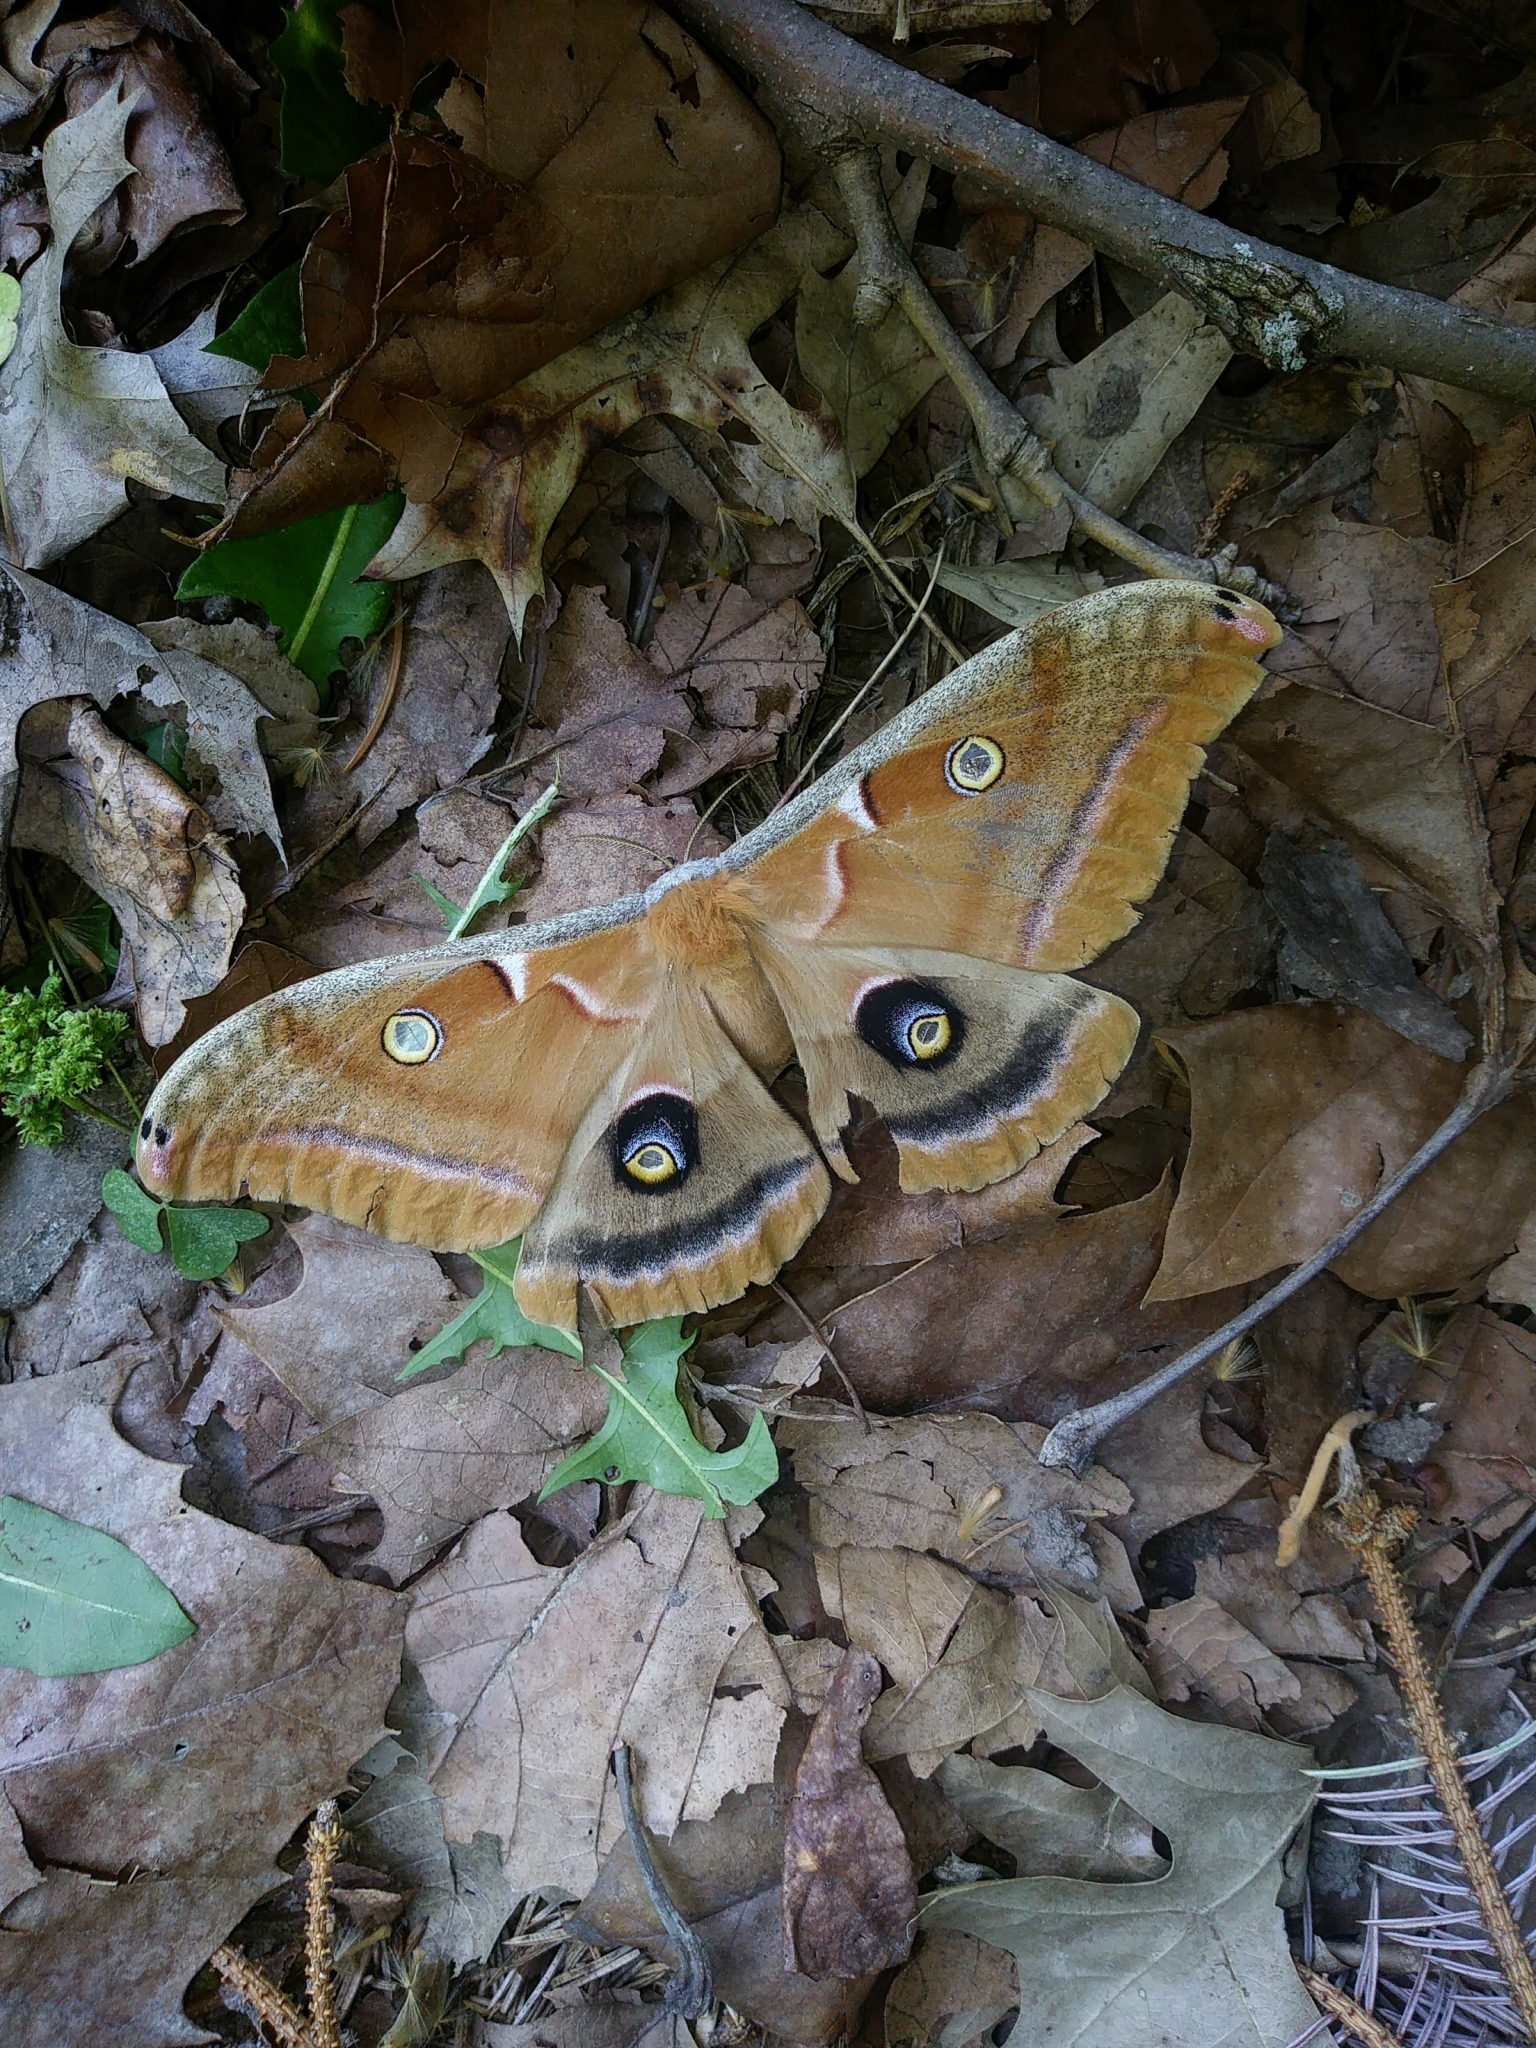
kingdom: Animalia
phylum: Arthropoda
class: Insecta
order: Lepidoptera
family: Saturniidae
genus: Antheraea
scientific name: Antheraea polyphemus
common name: Polyphemus moth
